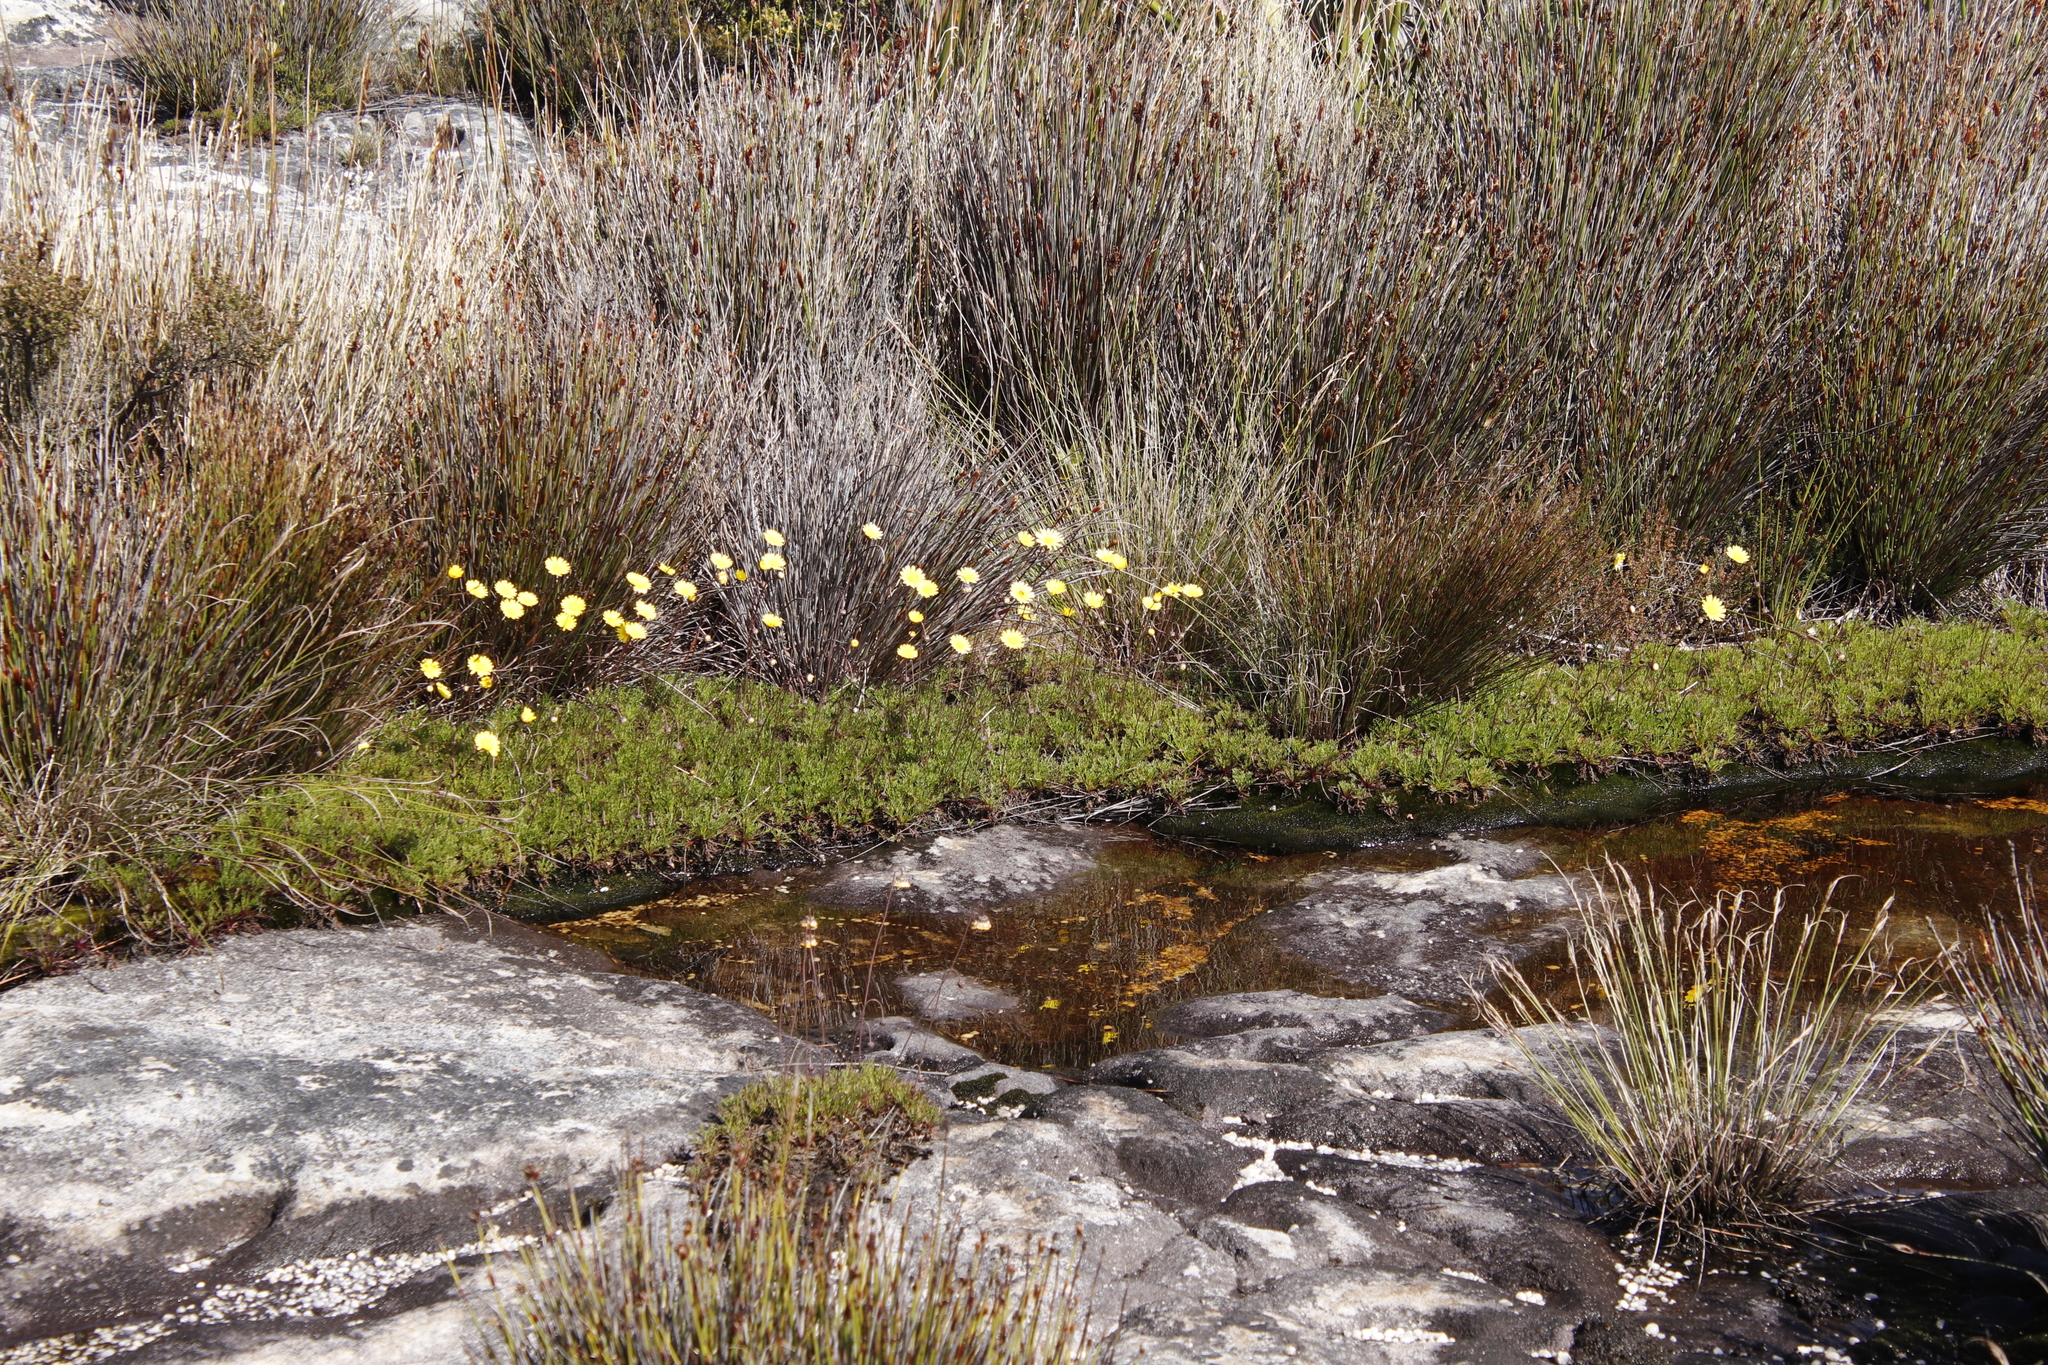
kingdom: Plantae
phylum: Tracheophyta
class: Magnoliopsida
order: Asterales
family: Asteraceae
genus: Ursinia
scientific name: Ursinia nudicaulis
